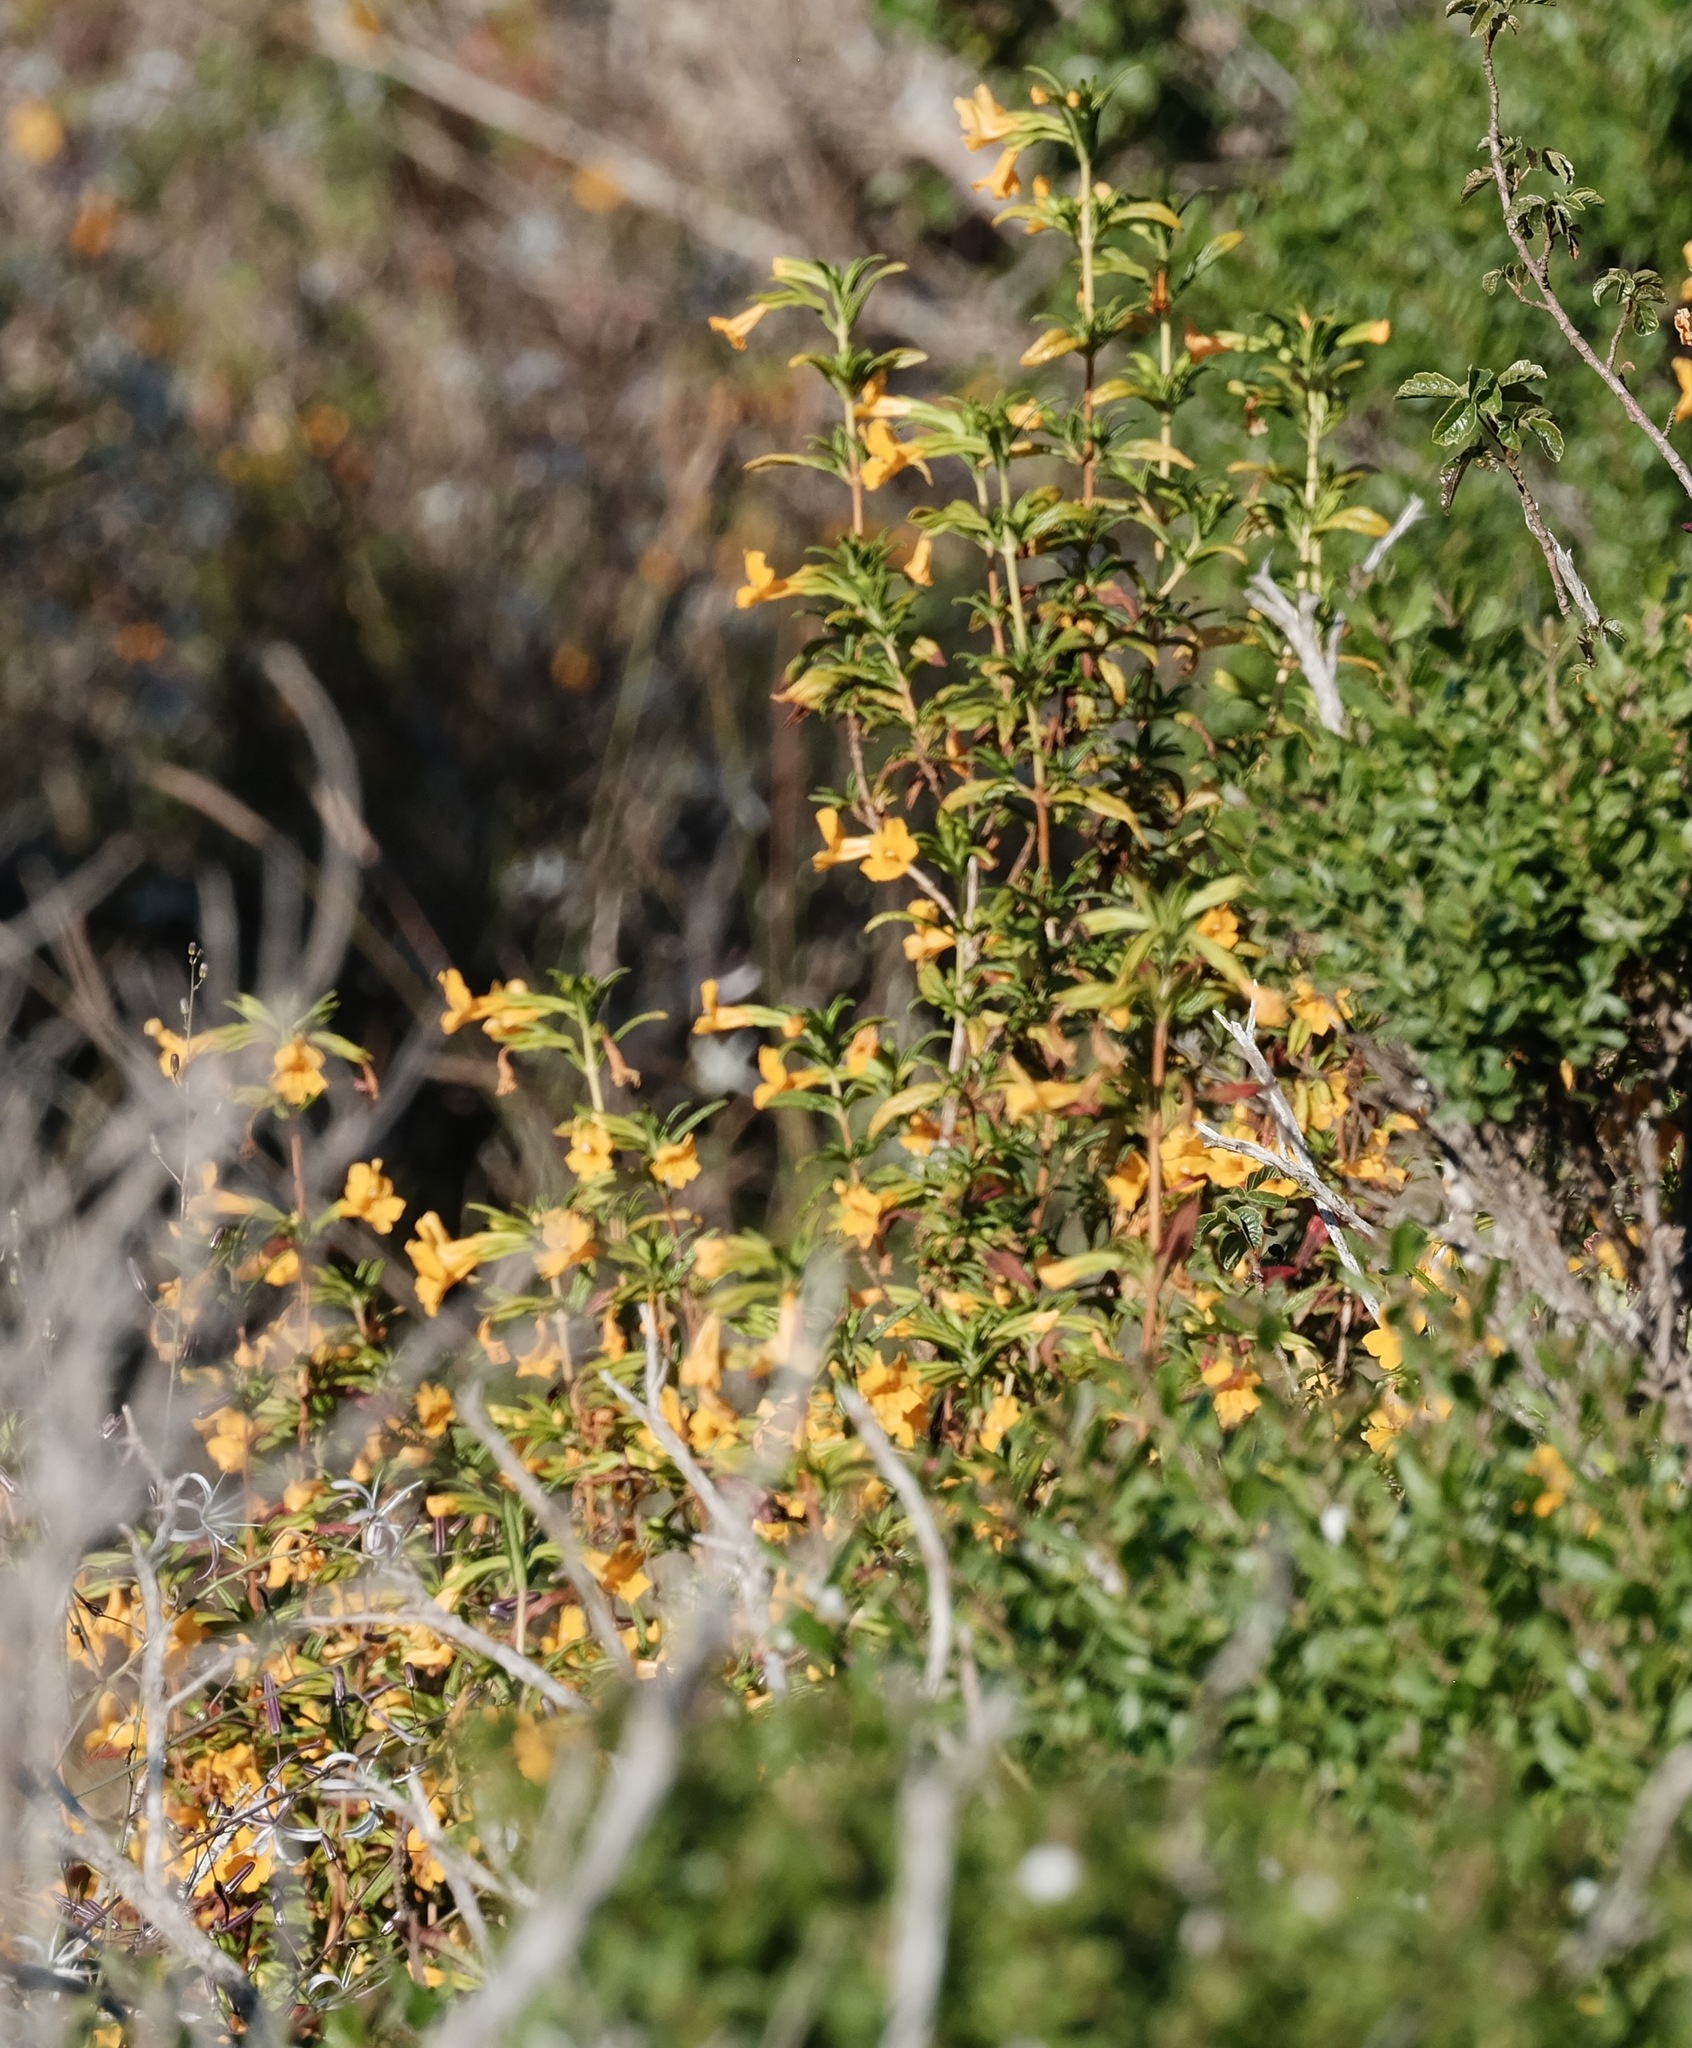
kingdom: Plantae
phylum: Tracheophyta
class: Magnoliopsida
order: Lamiales
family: Phrymaceae
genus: Diplacus
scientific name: Diplacus aurantiacus
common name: Bush monkey-flower
